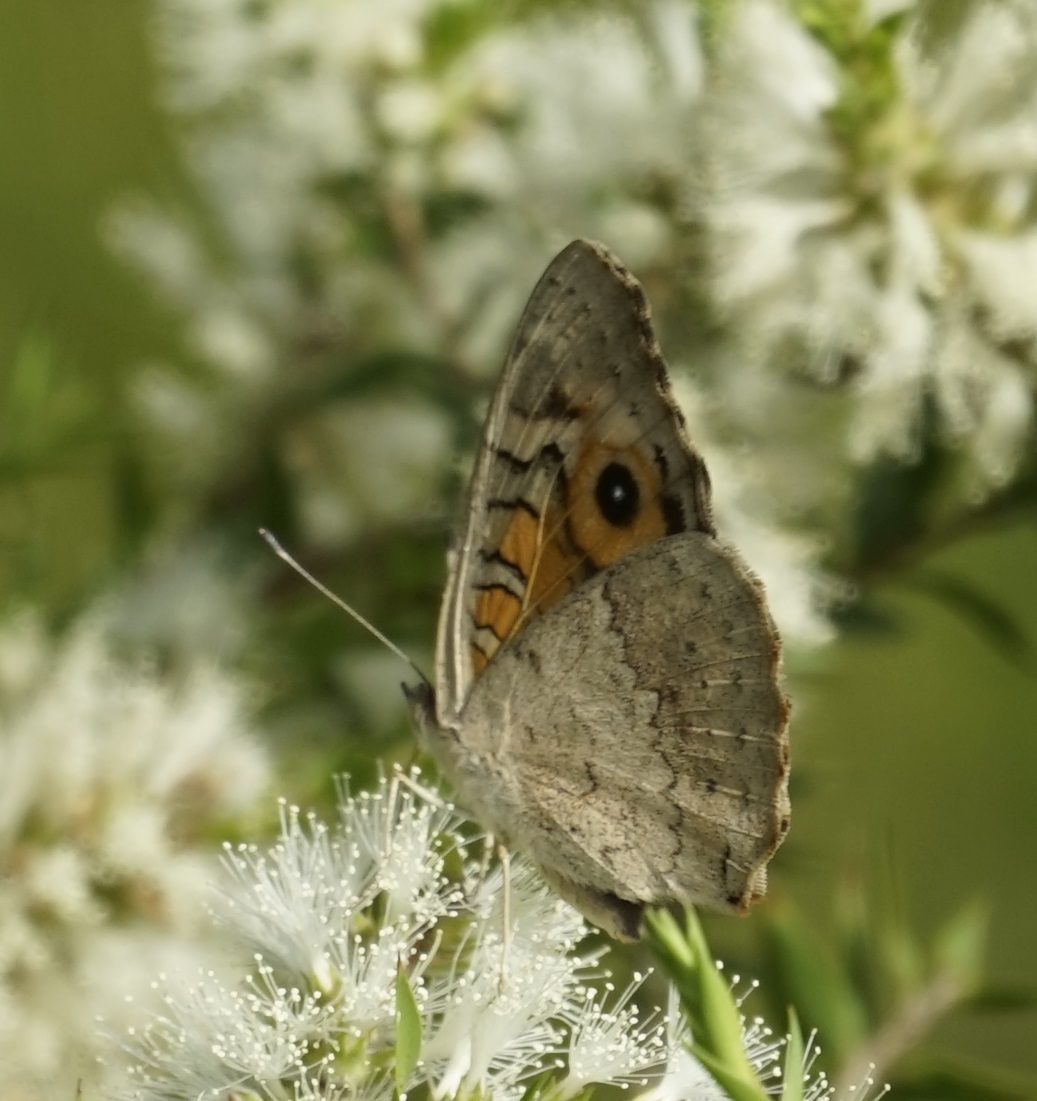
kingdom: Animalia
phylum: Arthropoda
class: Insecta
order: Lepidoptera
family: Nymphalidae
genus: Junonia
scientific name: Junonia villida
